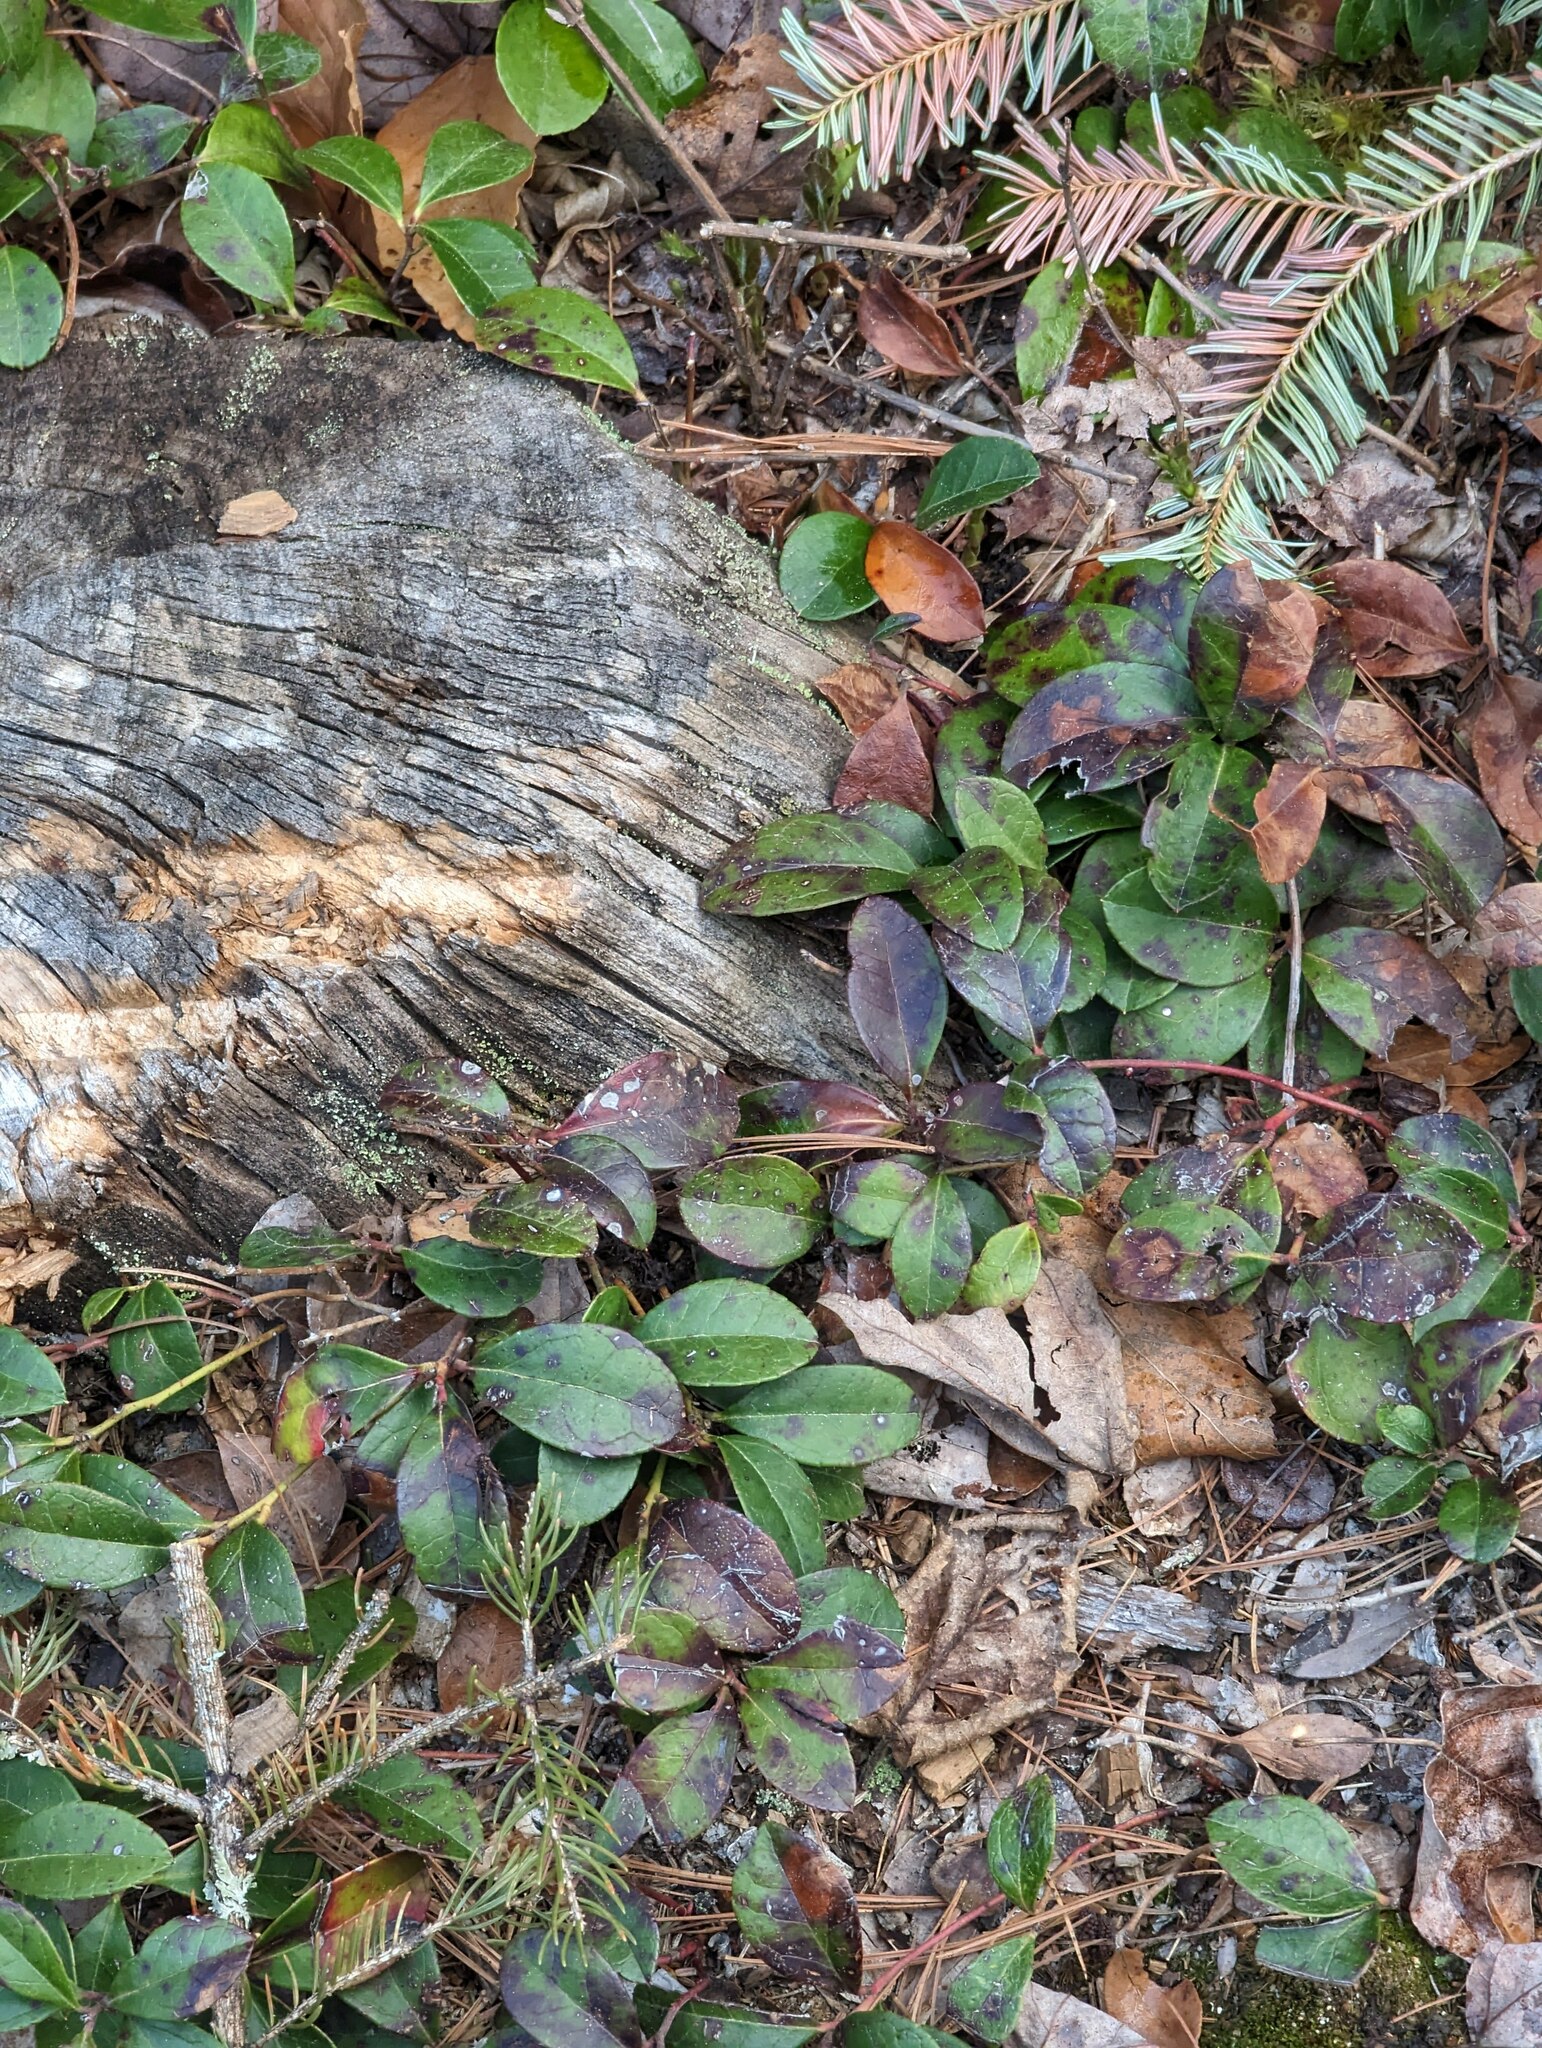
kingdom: Plantae
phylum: Tracheophyta
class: Magnoliopsida
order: Ericales
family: Ericaceae
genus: Gaultheria
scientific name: Gaultheria procumbens
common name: Checkerberry
